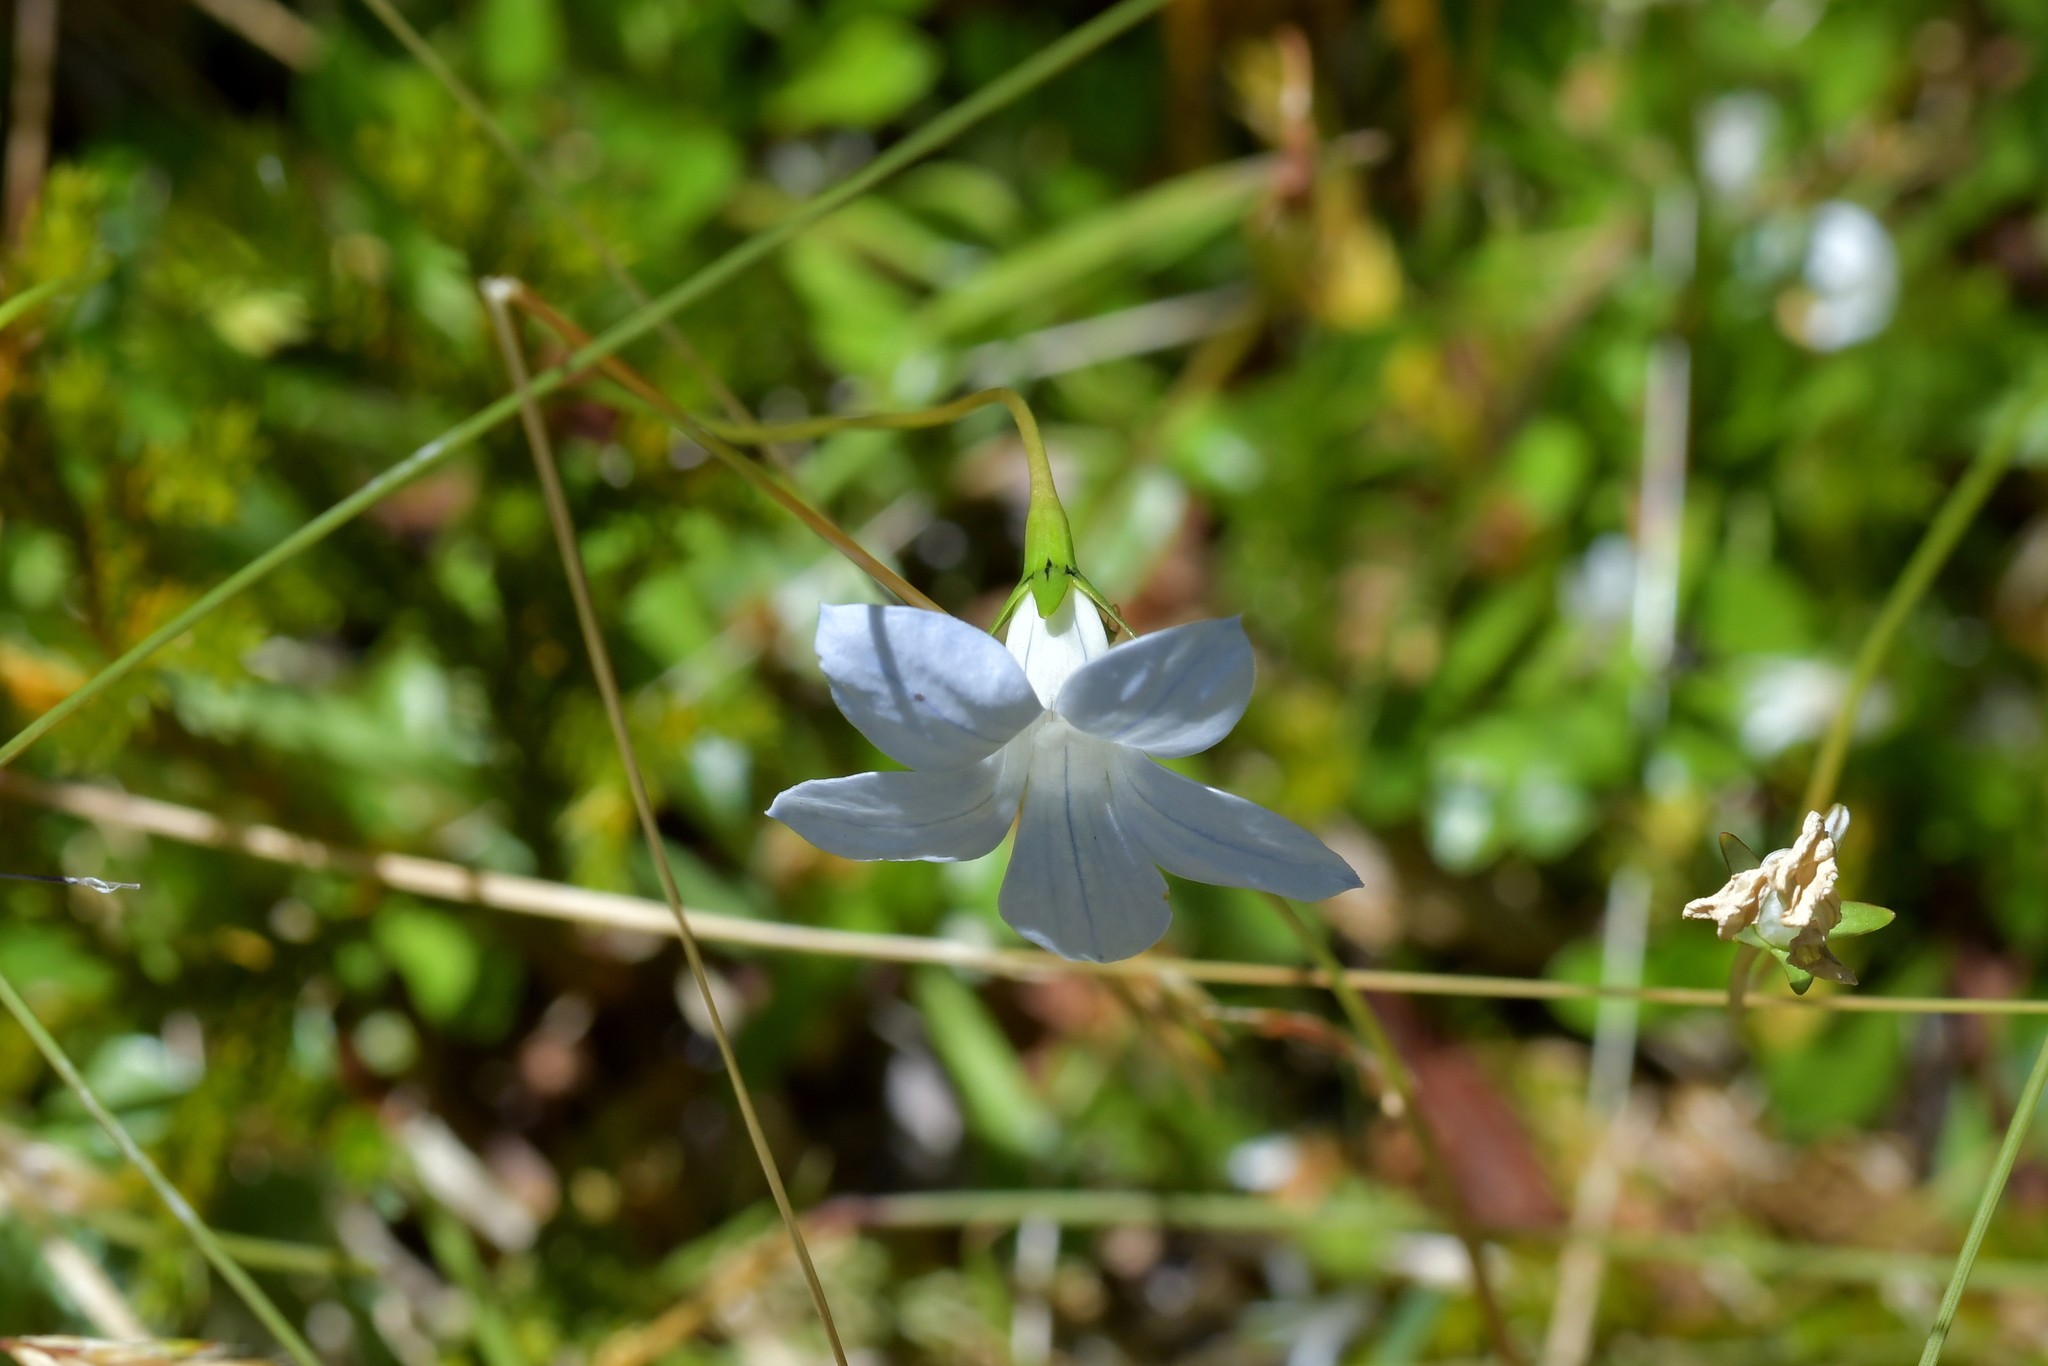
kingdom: Plantae
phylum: Tracheophyta
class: Magnoliopsida
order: Asterales
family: Campanulaceae
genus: Wahlenbergia
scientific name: Wahlenbergia albomarginata
